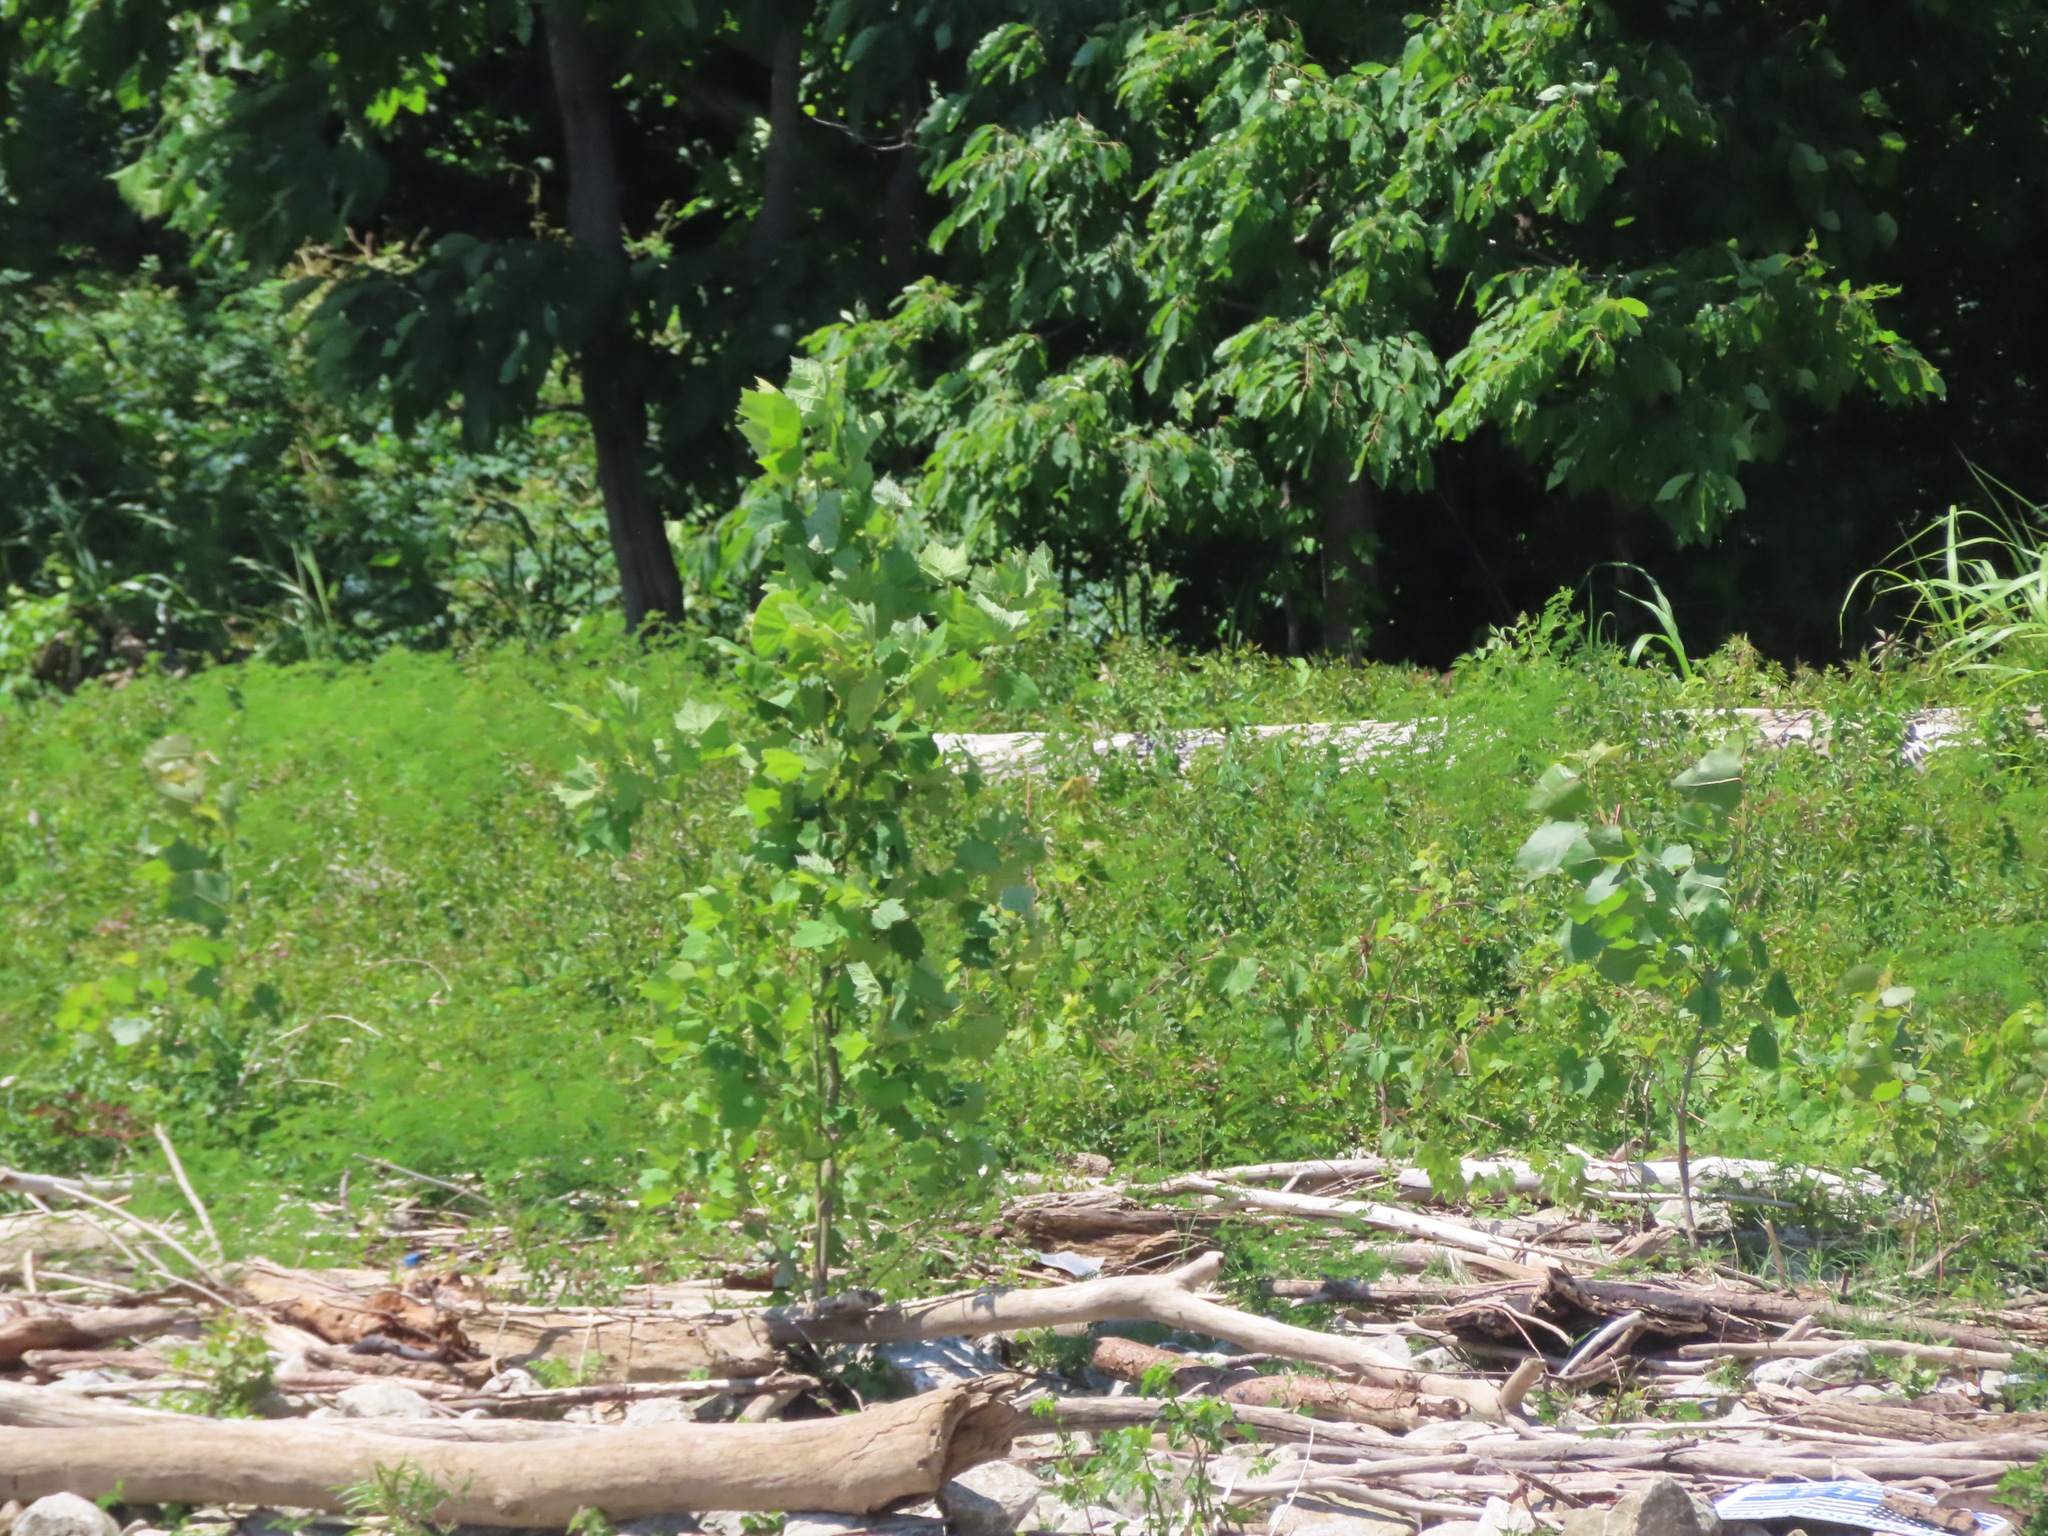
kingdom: Plantae
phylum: Tracheophyta
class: Magnoliopsida
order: Proteales
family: Platanaceae
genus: Platanus
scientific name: Platanus occidentalis
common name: American sycamore
